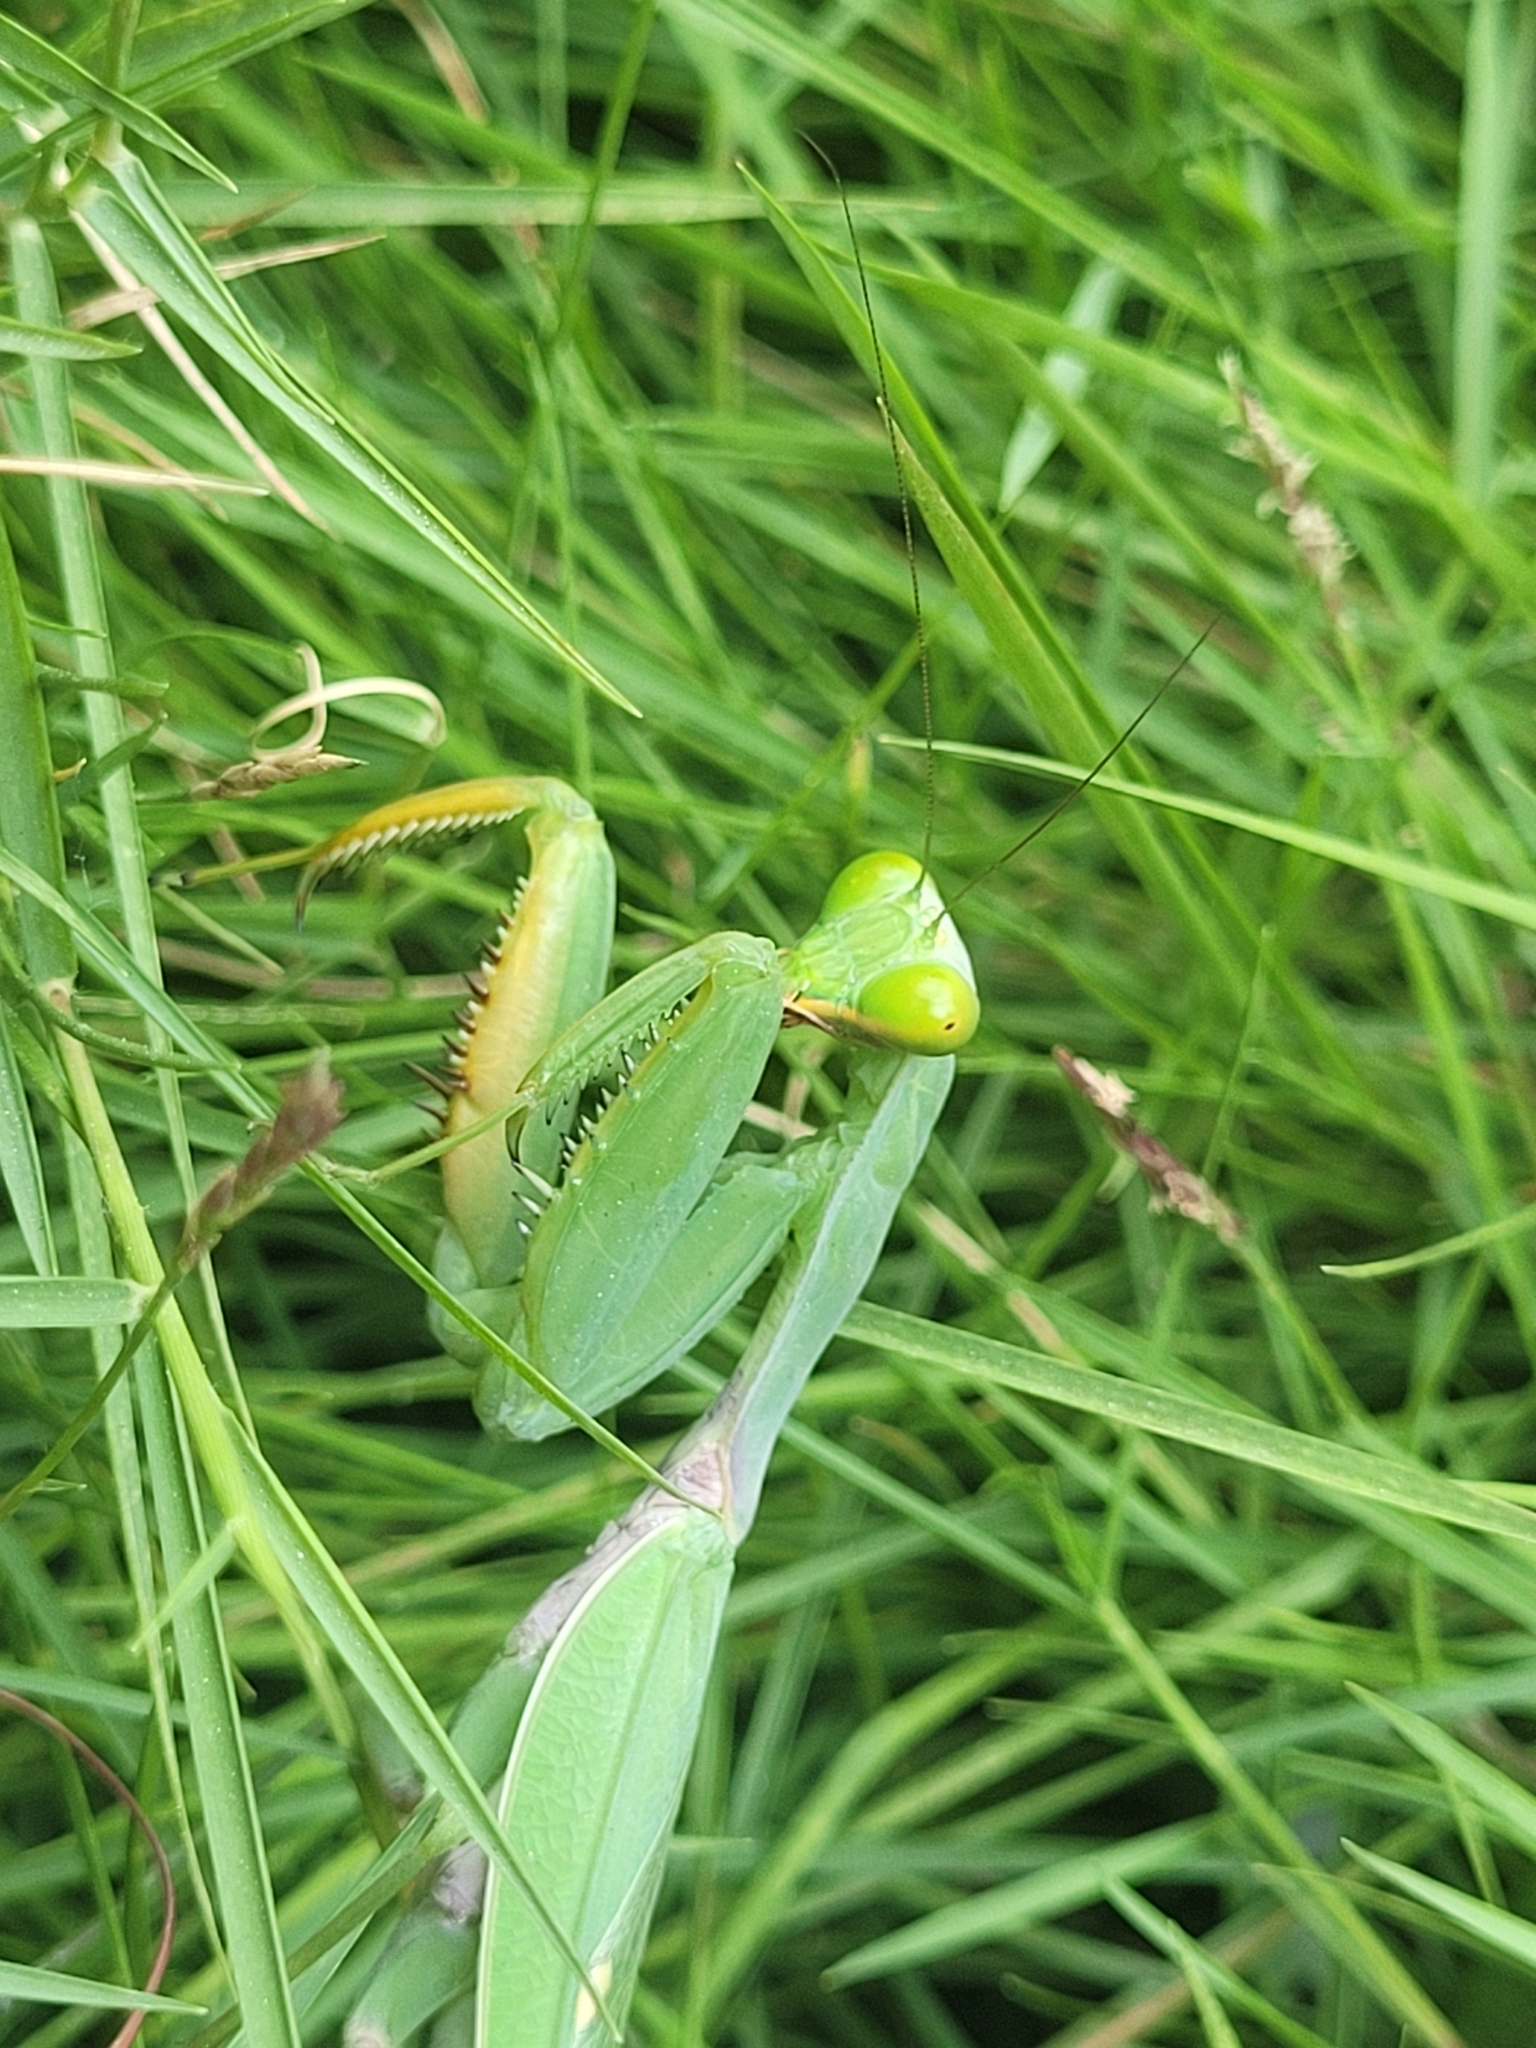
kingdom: Animalia
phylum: Arthropoda
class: Insecta
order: Mantodea
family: Mantidae
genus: Hierodula
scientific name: Hierodula tenuidentata
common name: Giant asian mantis
